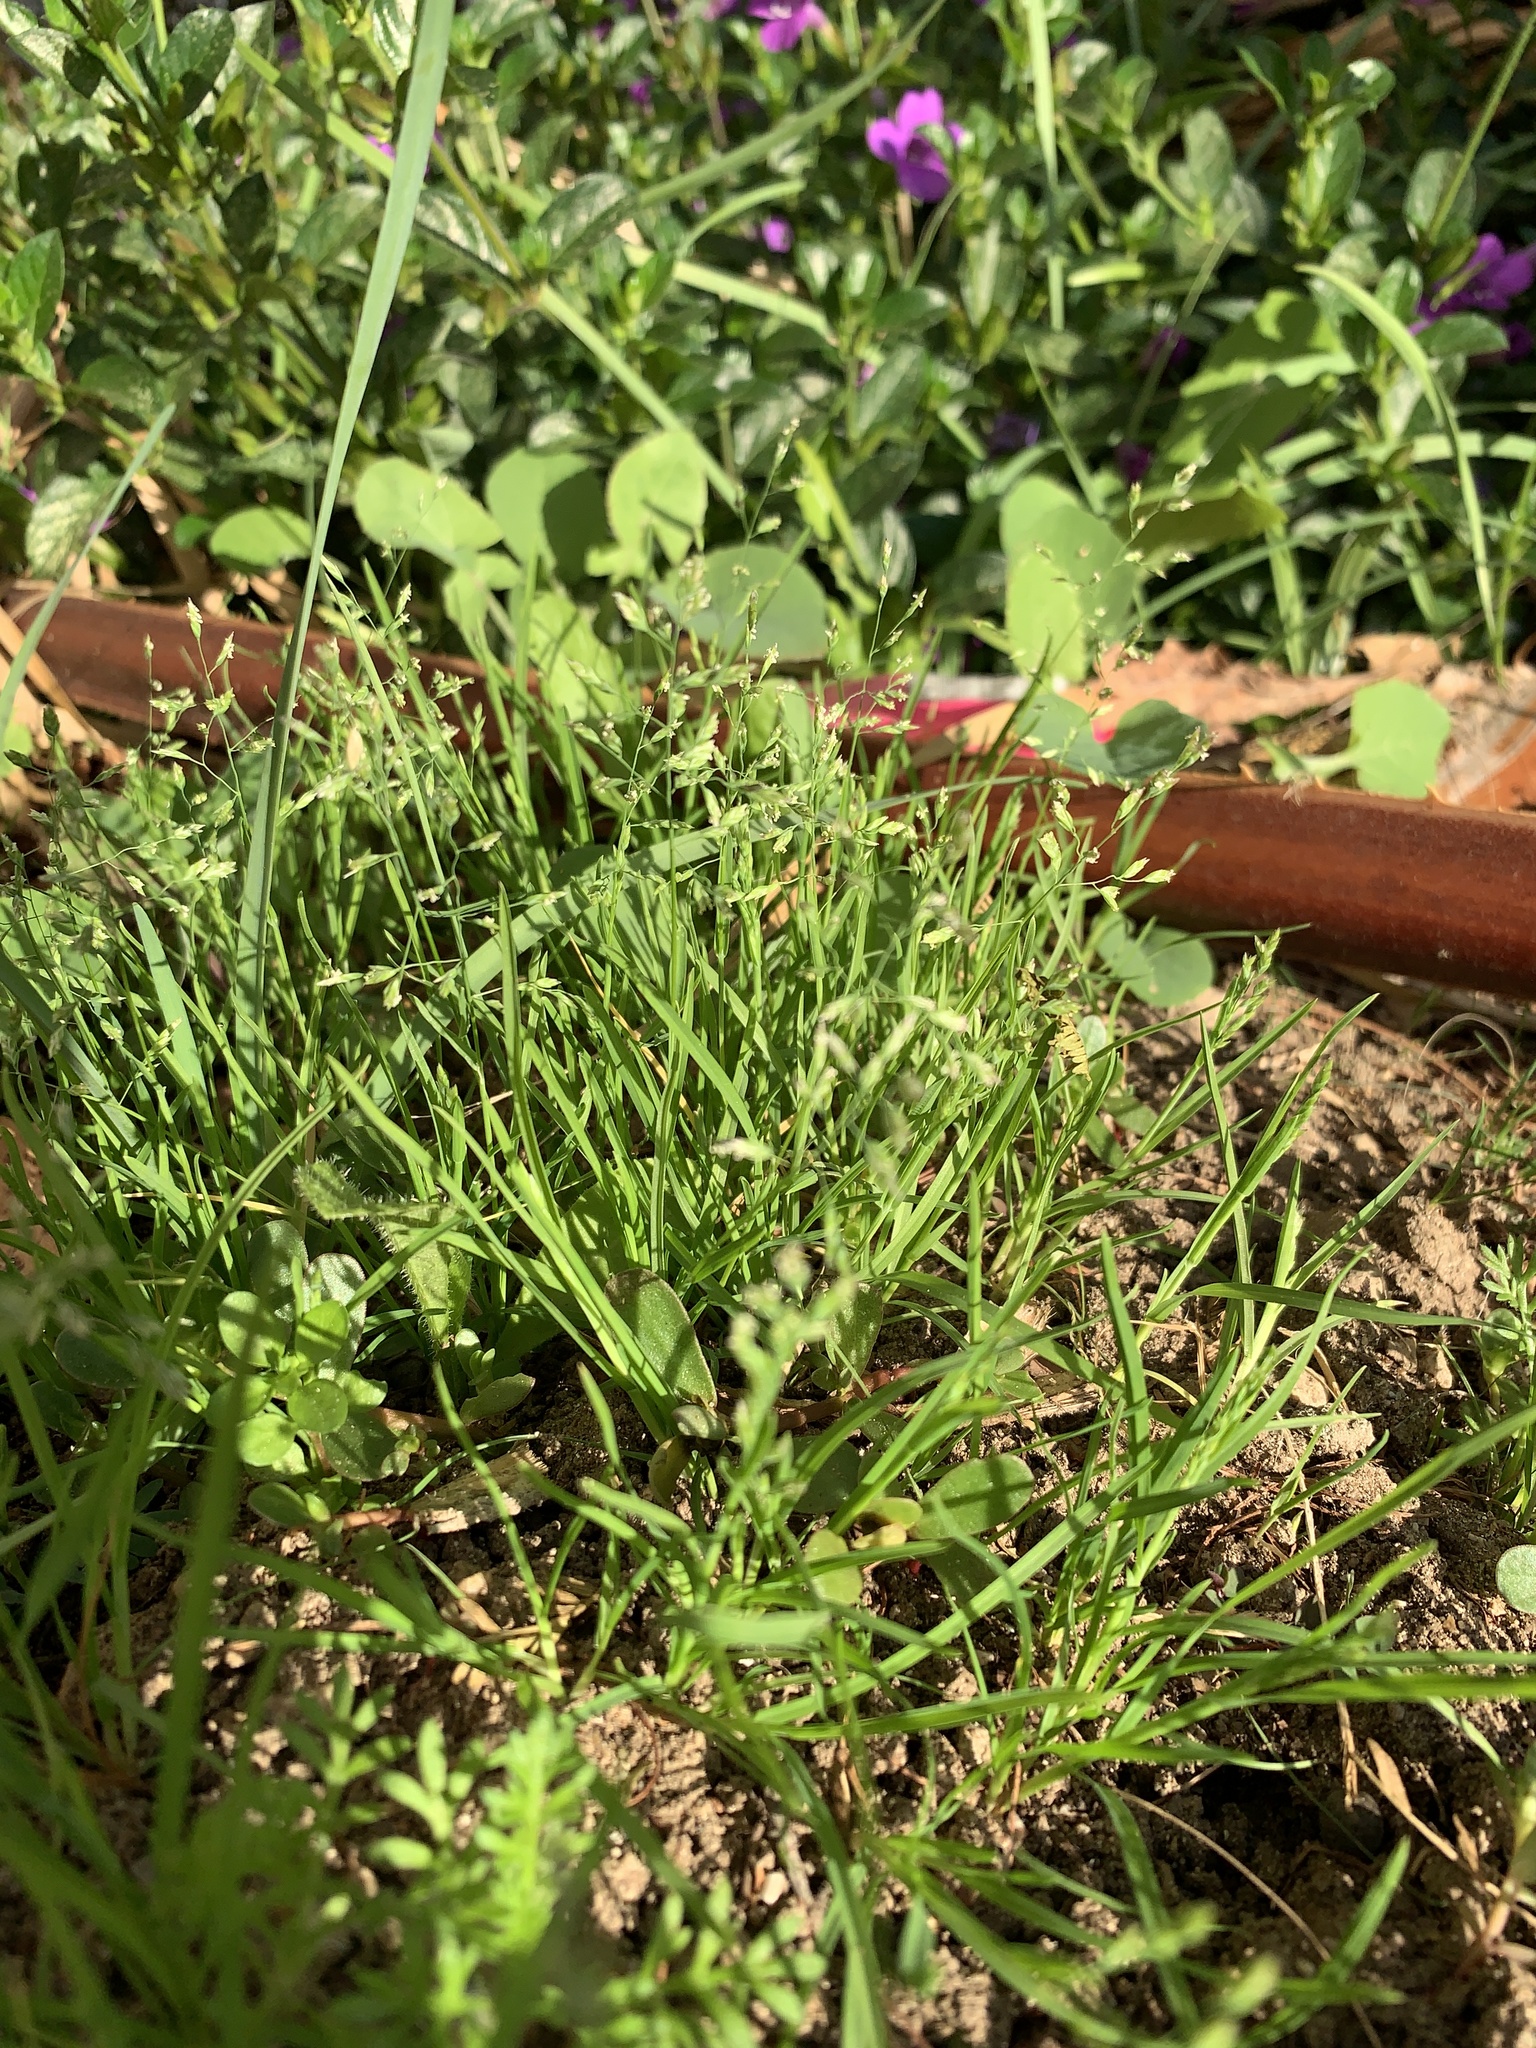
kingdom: Plantae
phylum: Tracheophyta
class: Liliopsida
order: Poales
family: Poaceae
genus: Poa
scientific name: Poa annua
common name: Annual bluegrass
